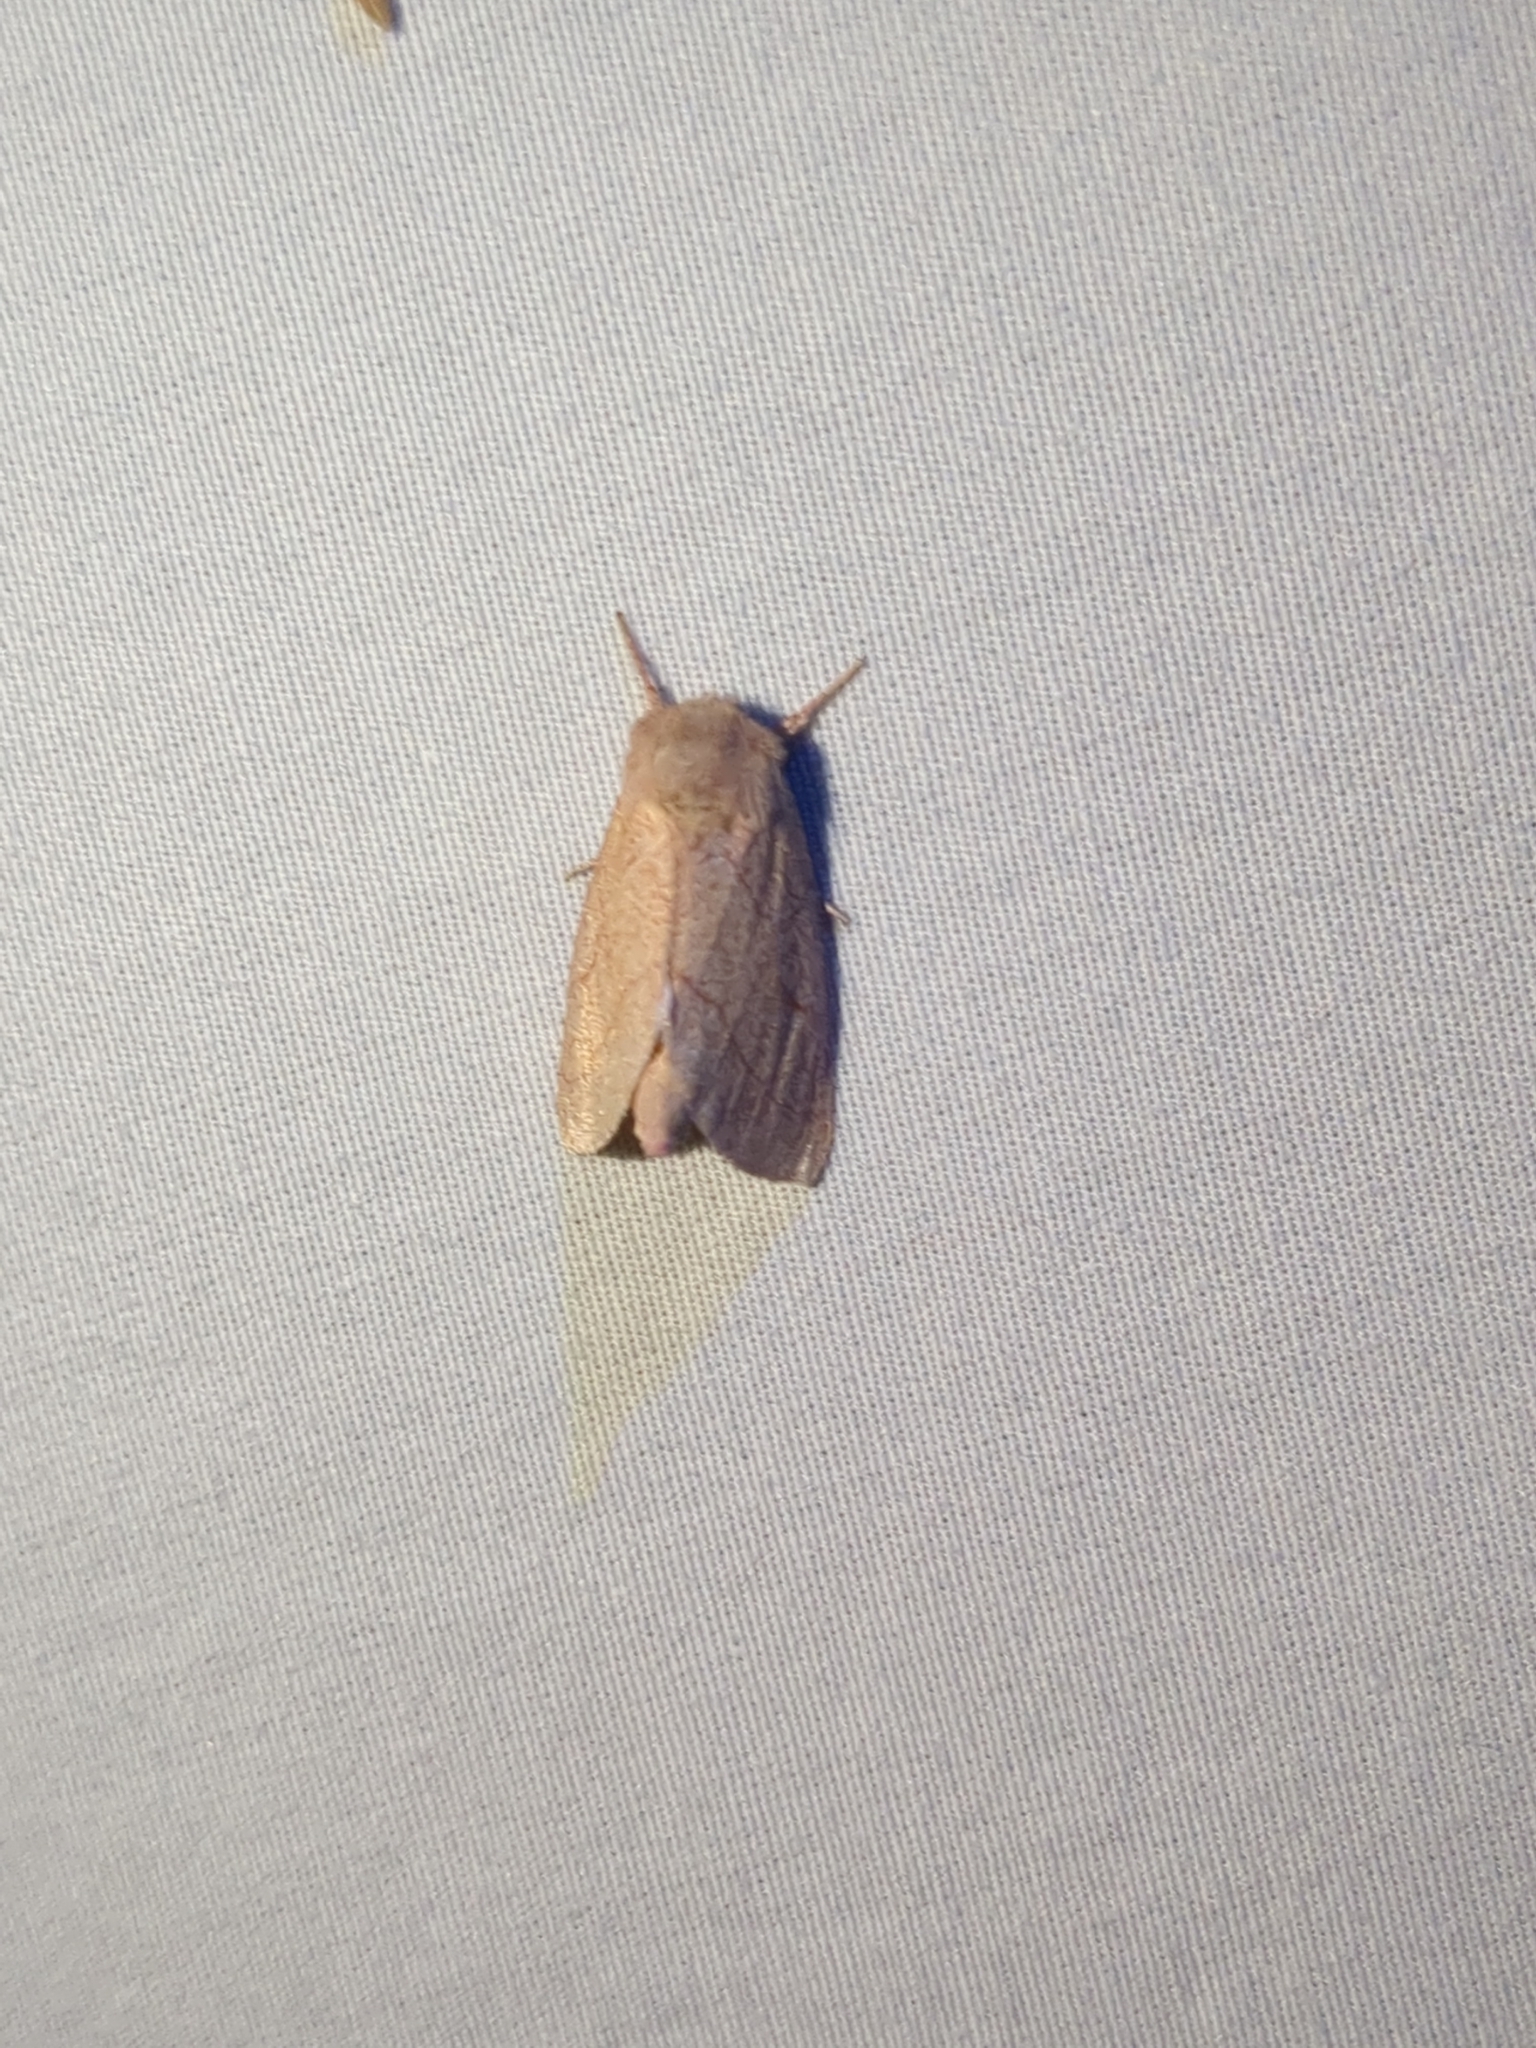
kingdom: Animalia
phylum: Arthropoda
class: Insecta
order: Lepidoptera
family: Notodontidae
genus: Hyparpax
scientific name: Hyparpax aurostriata
